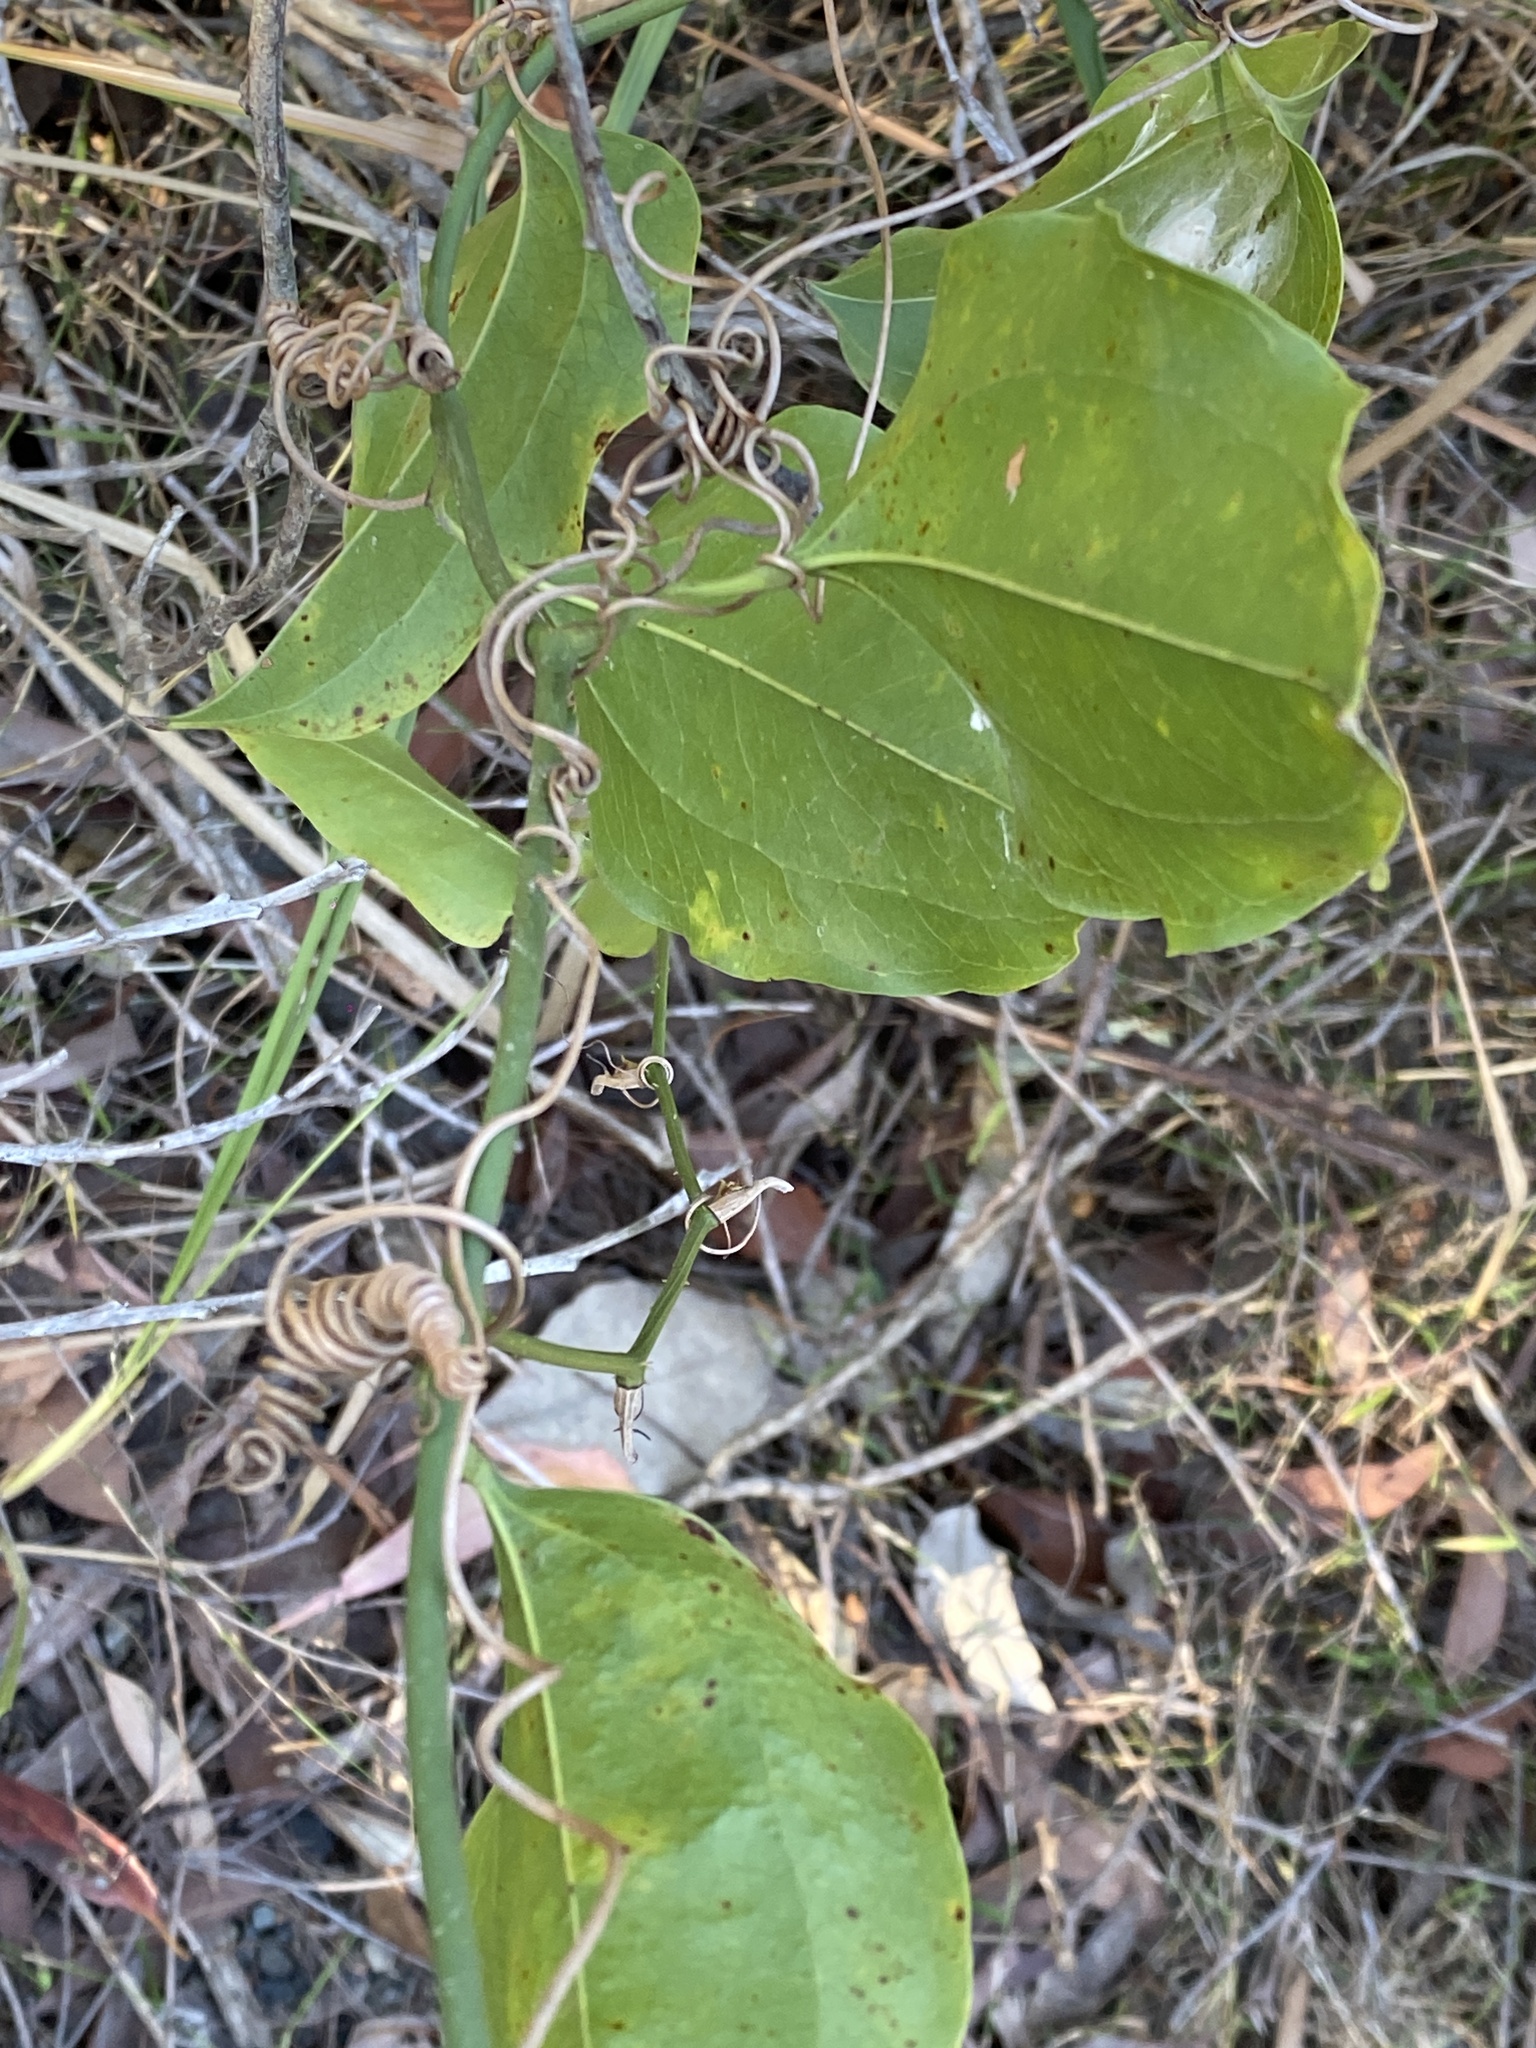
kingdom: Plantae
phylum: Tracheophyta
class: Liliopsida
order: Liliales
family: Smilacaceae
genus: Smilax
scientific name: Smilax australis
